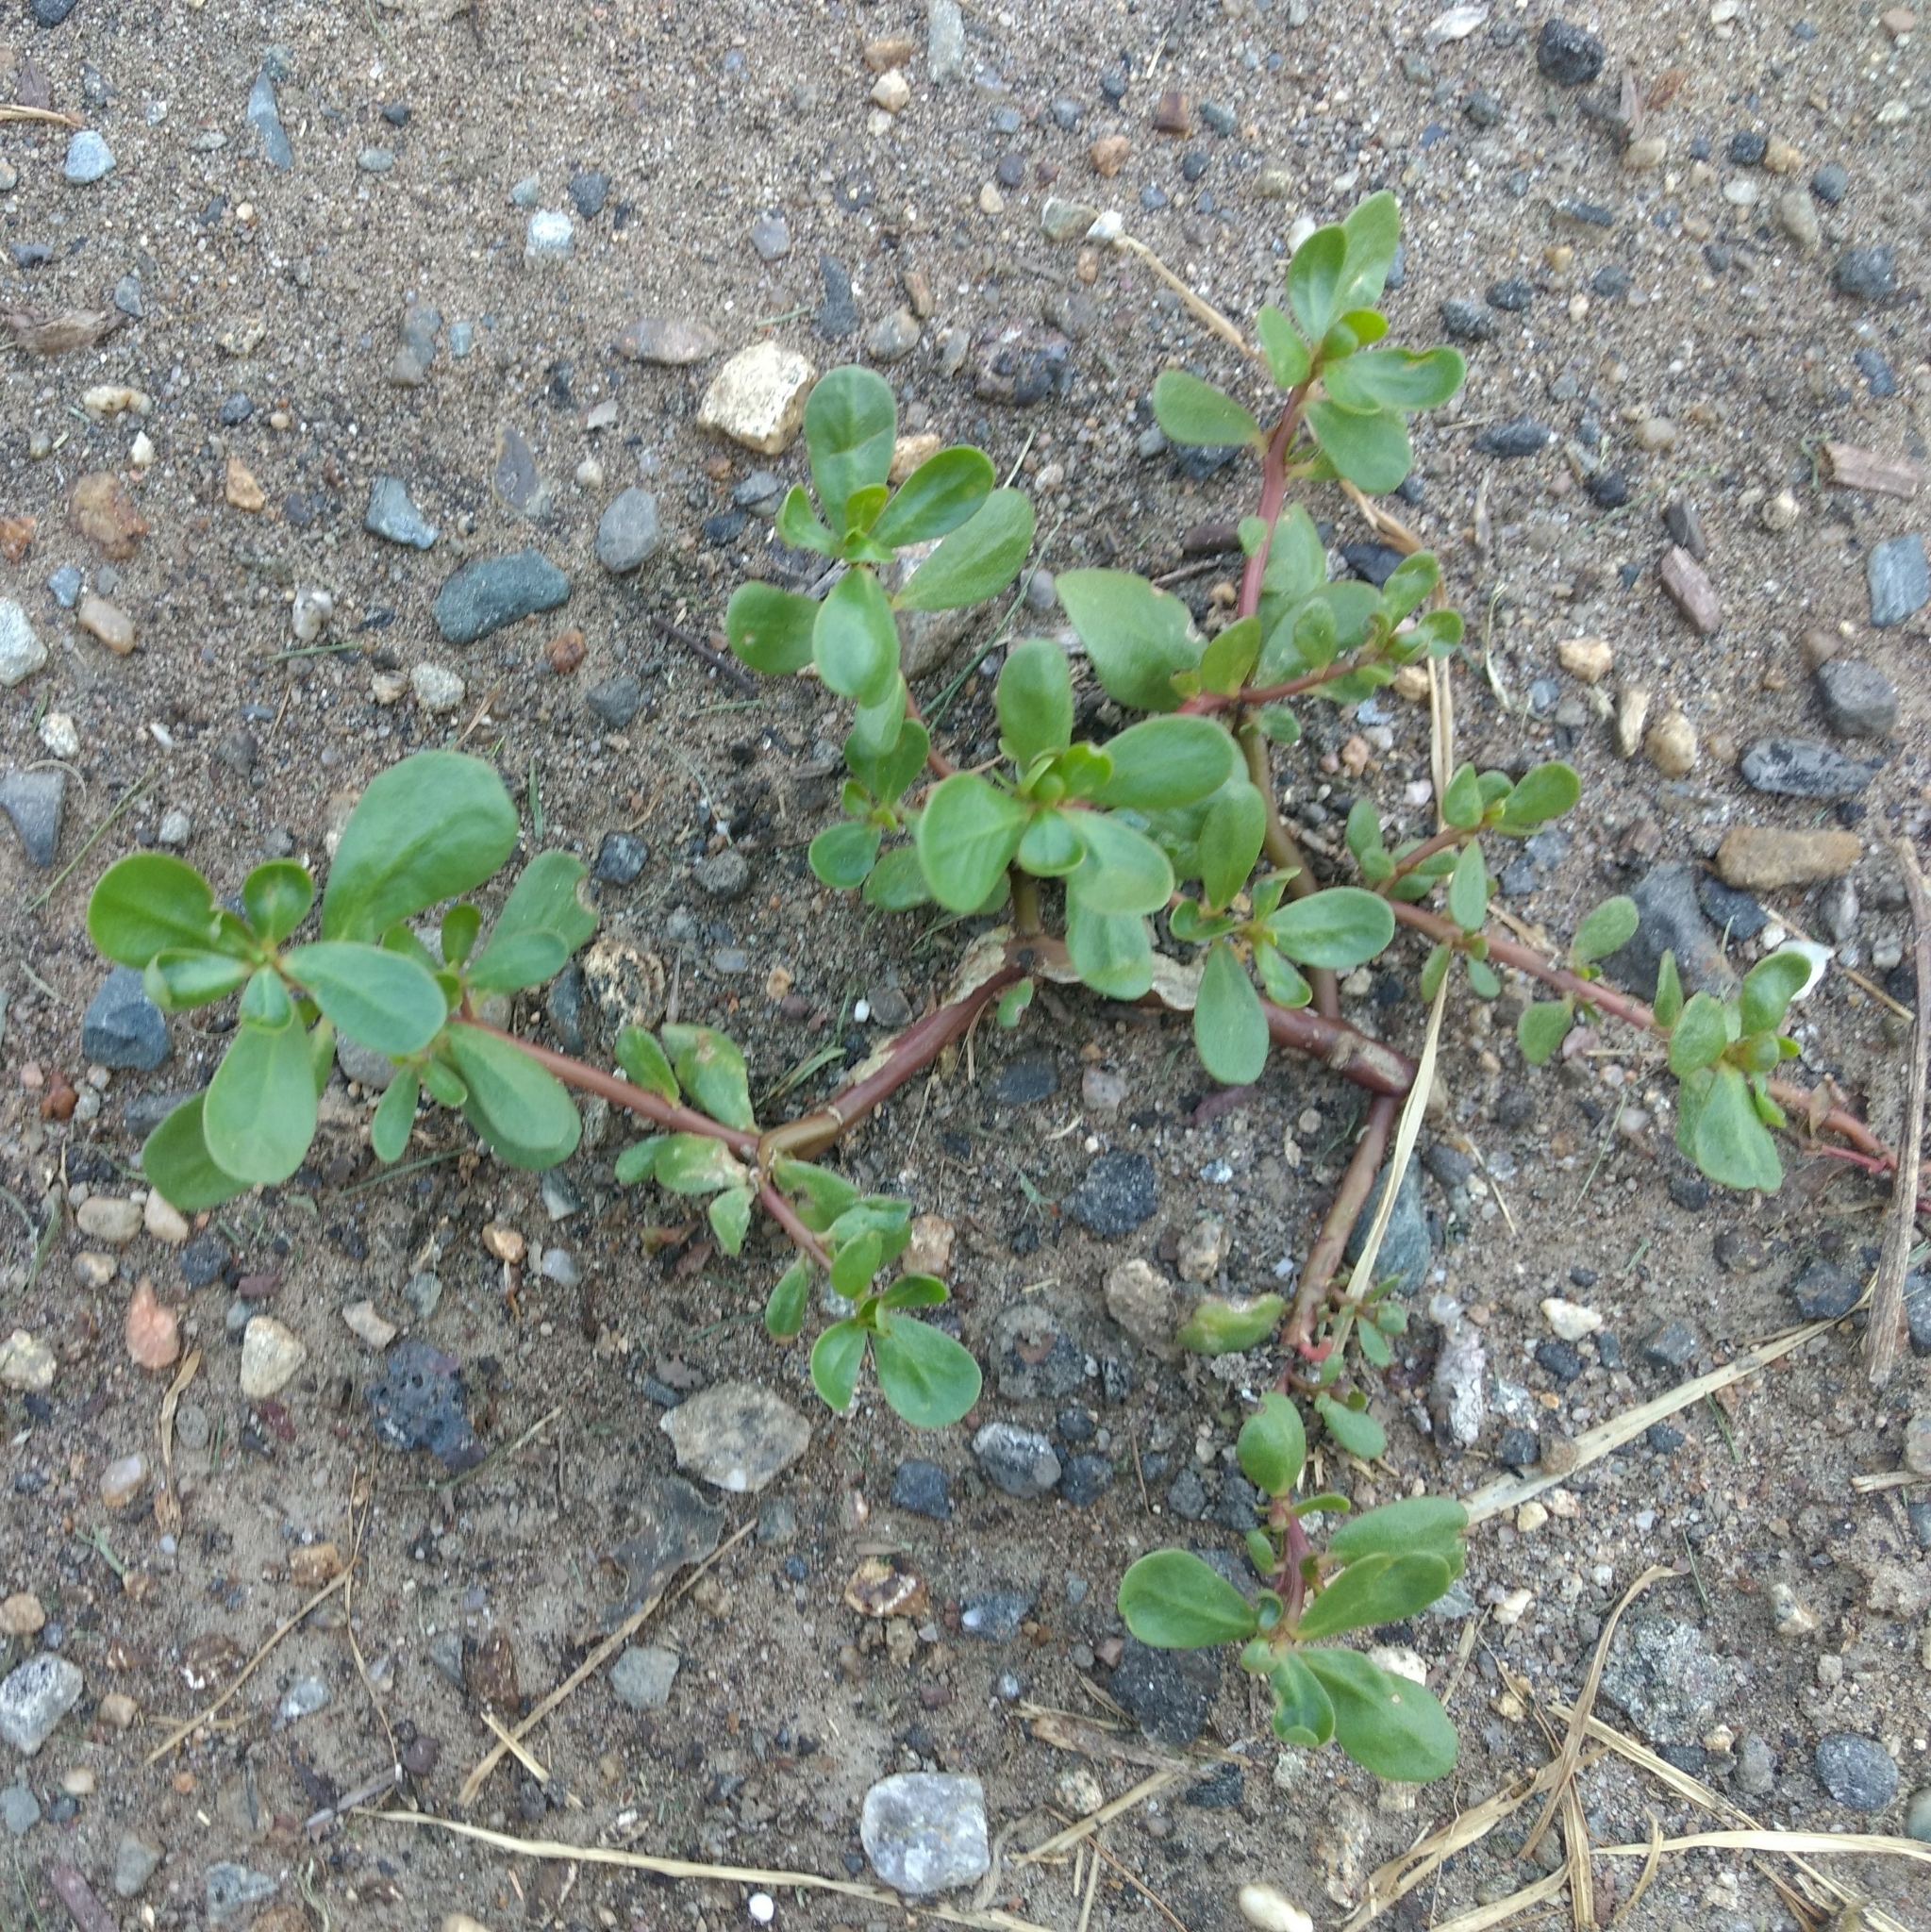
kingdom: Plantae
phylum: Tracheophyta
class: Magnoliopsida
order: Caryophyllales
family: Portulacaceae
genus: Portulaca
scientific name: Portulaca oleracea
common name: Common purslane
